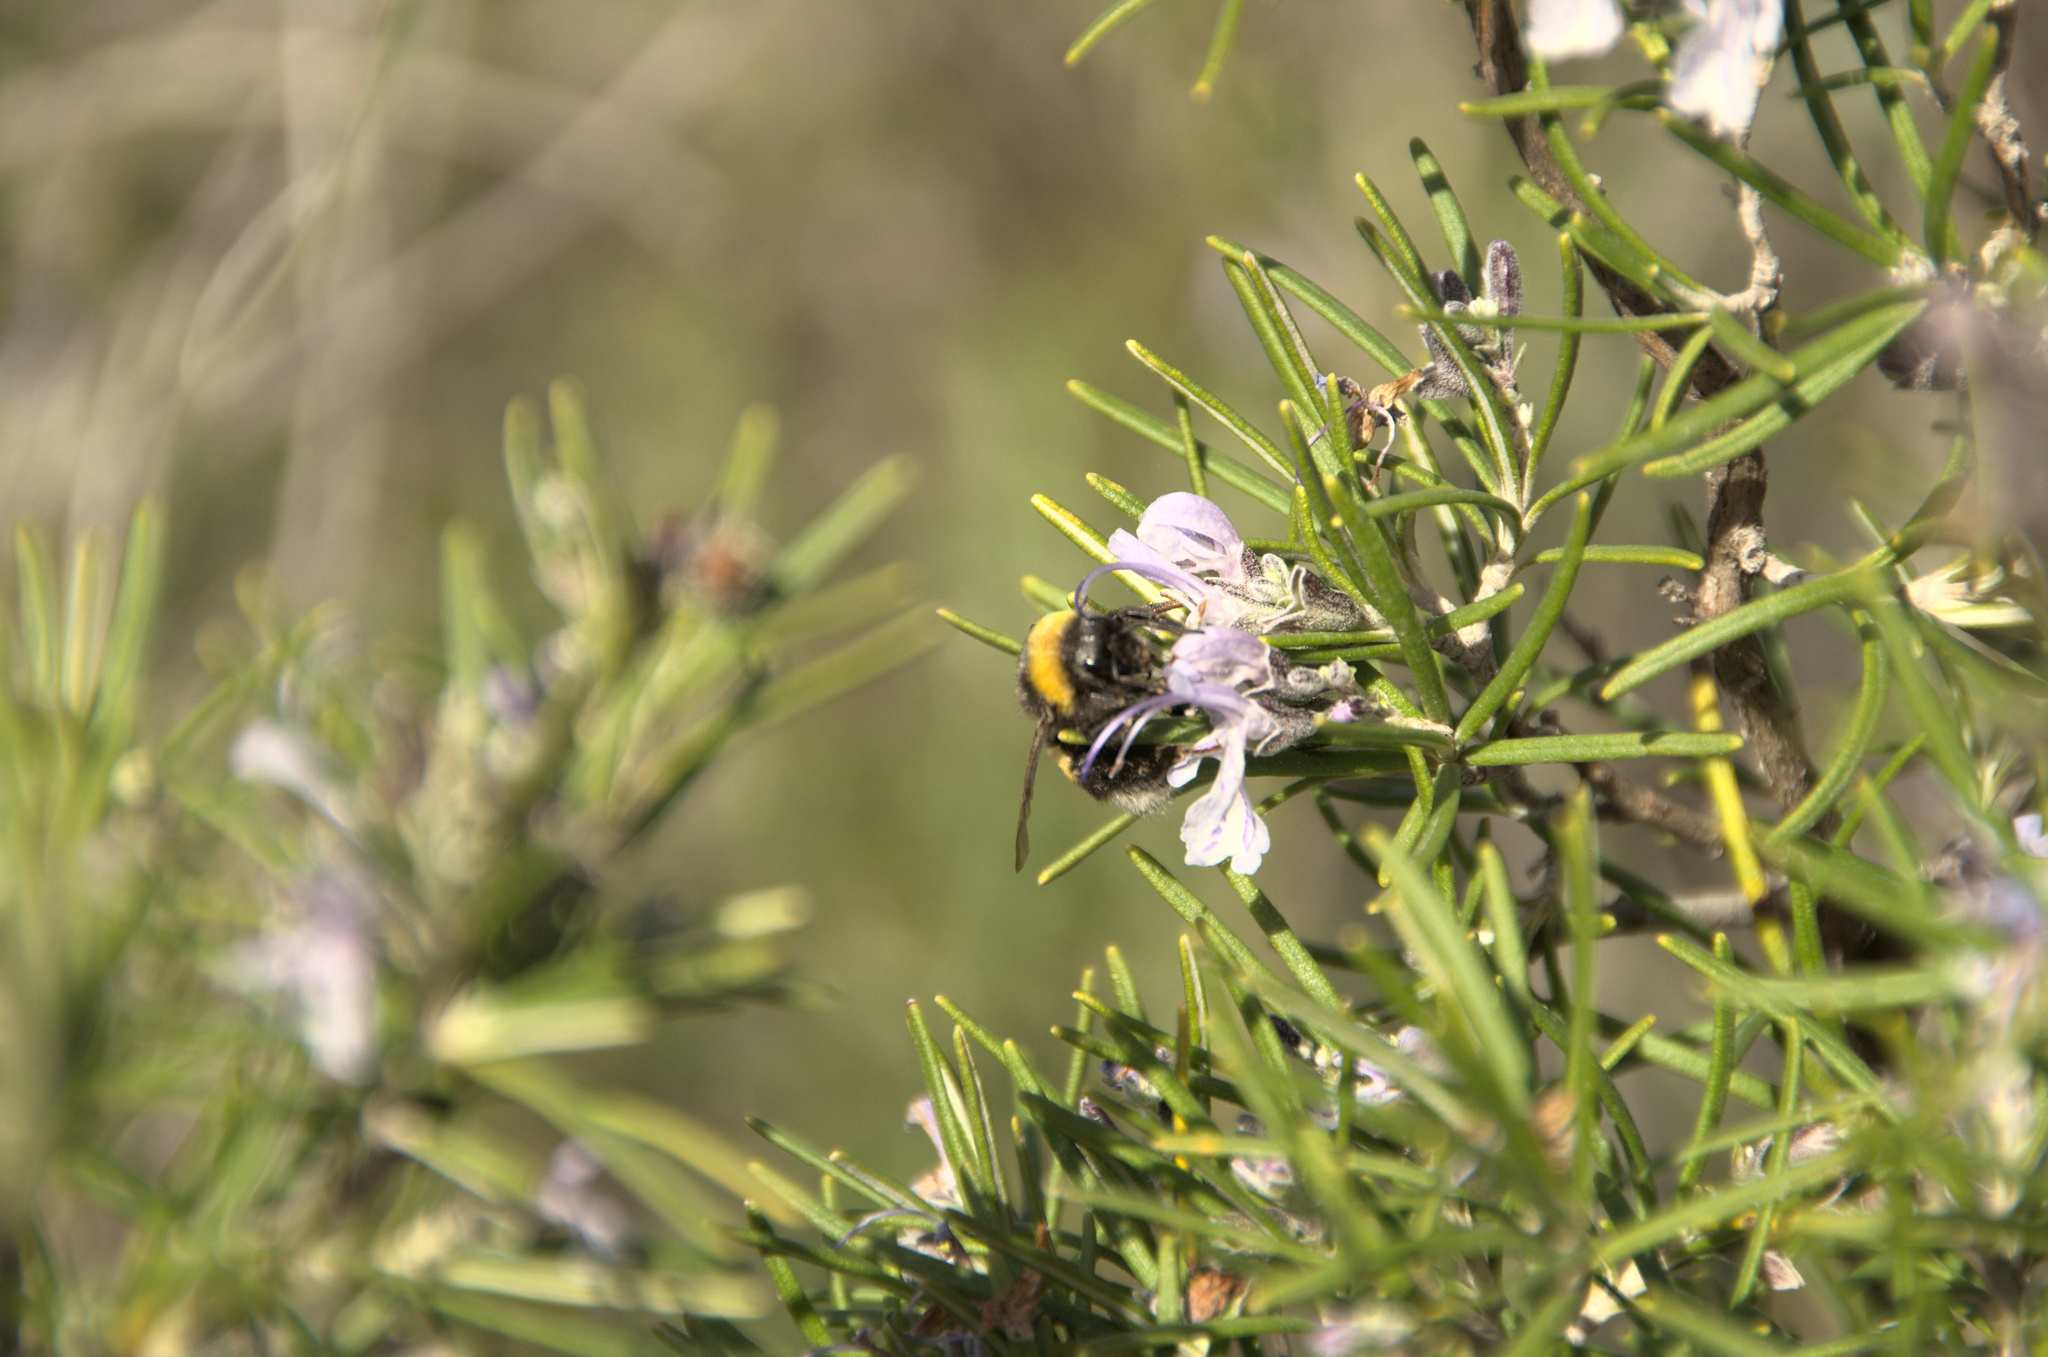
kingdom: Animalia
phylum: Arthropoda
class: Insecta
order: Hymenoptera
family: Apidae
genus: Bombus
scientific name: Bombus terrestris
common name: Buff-tailed bumblebee
